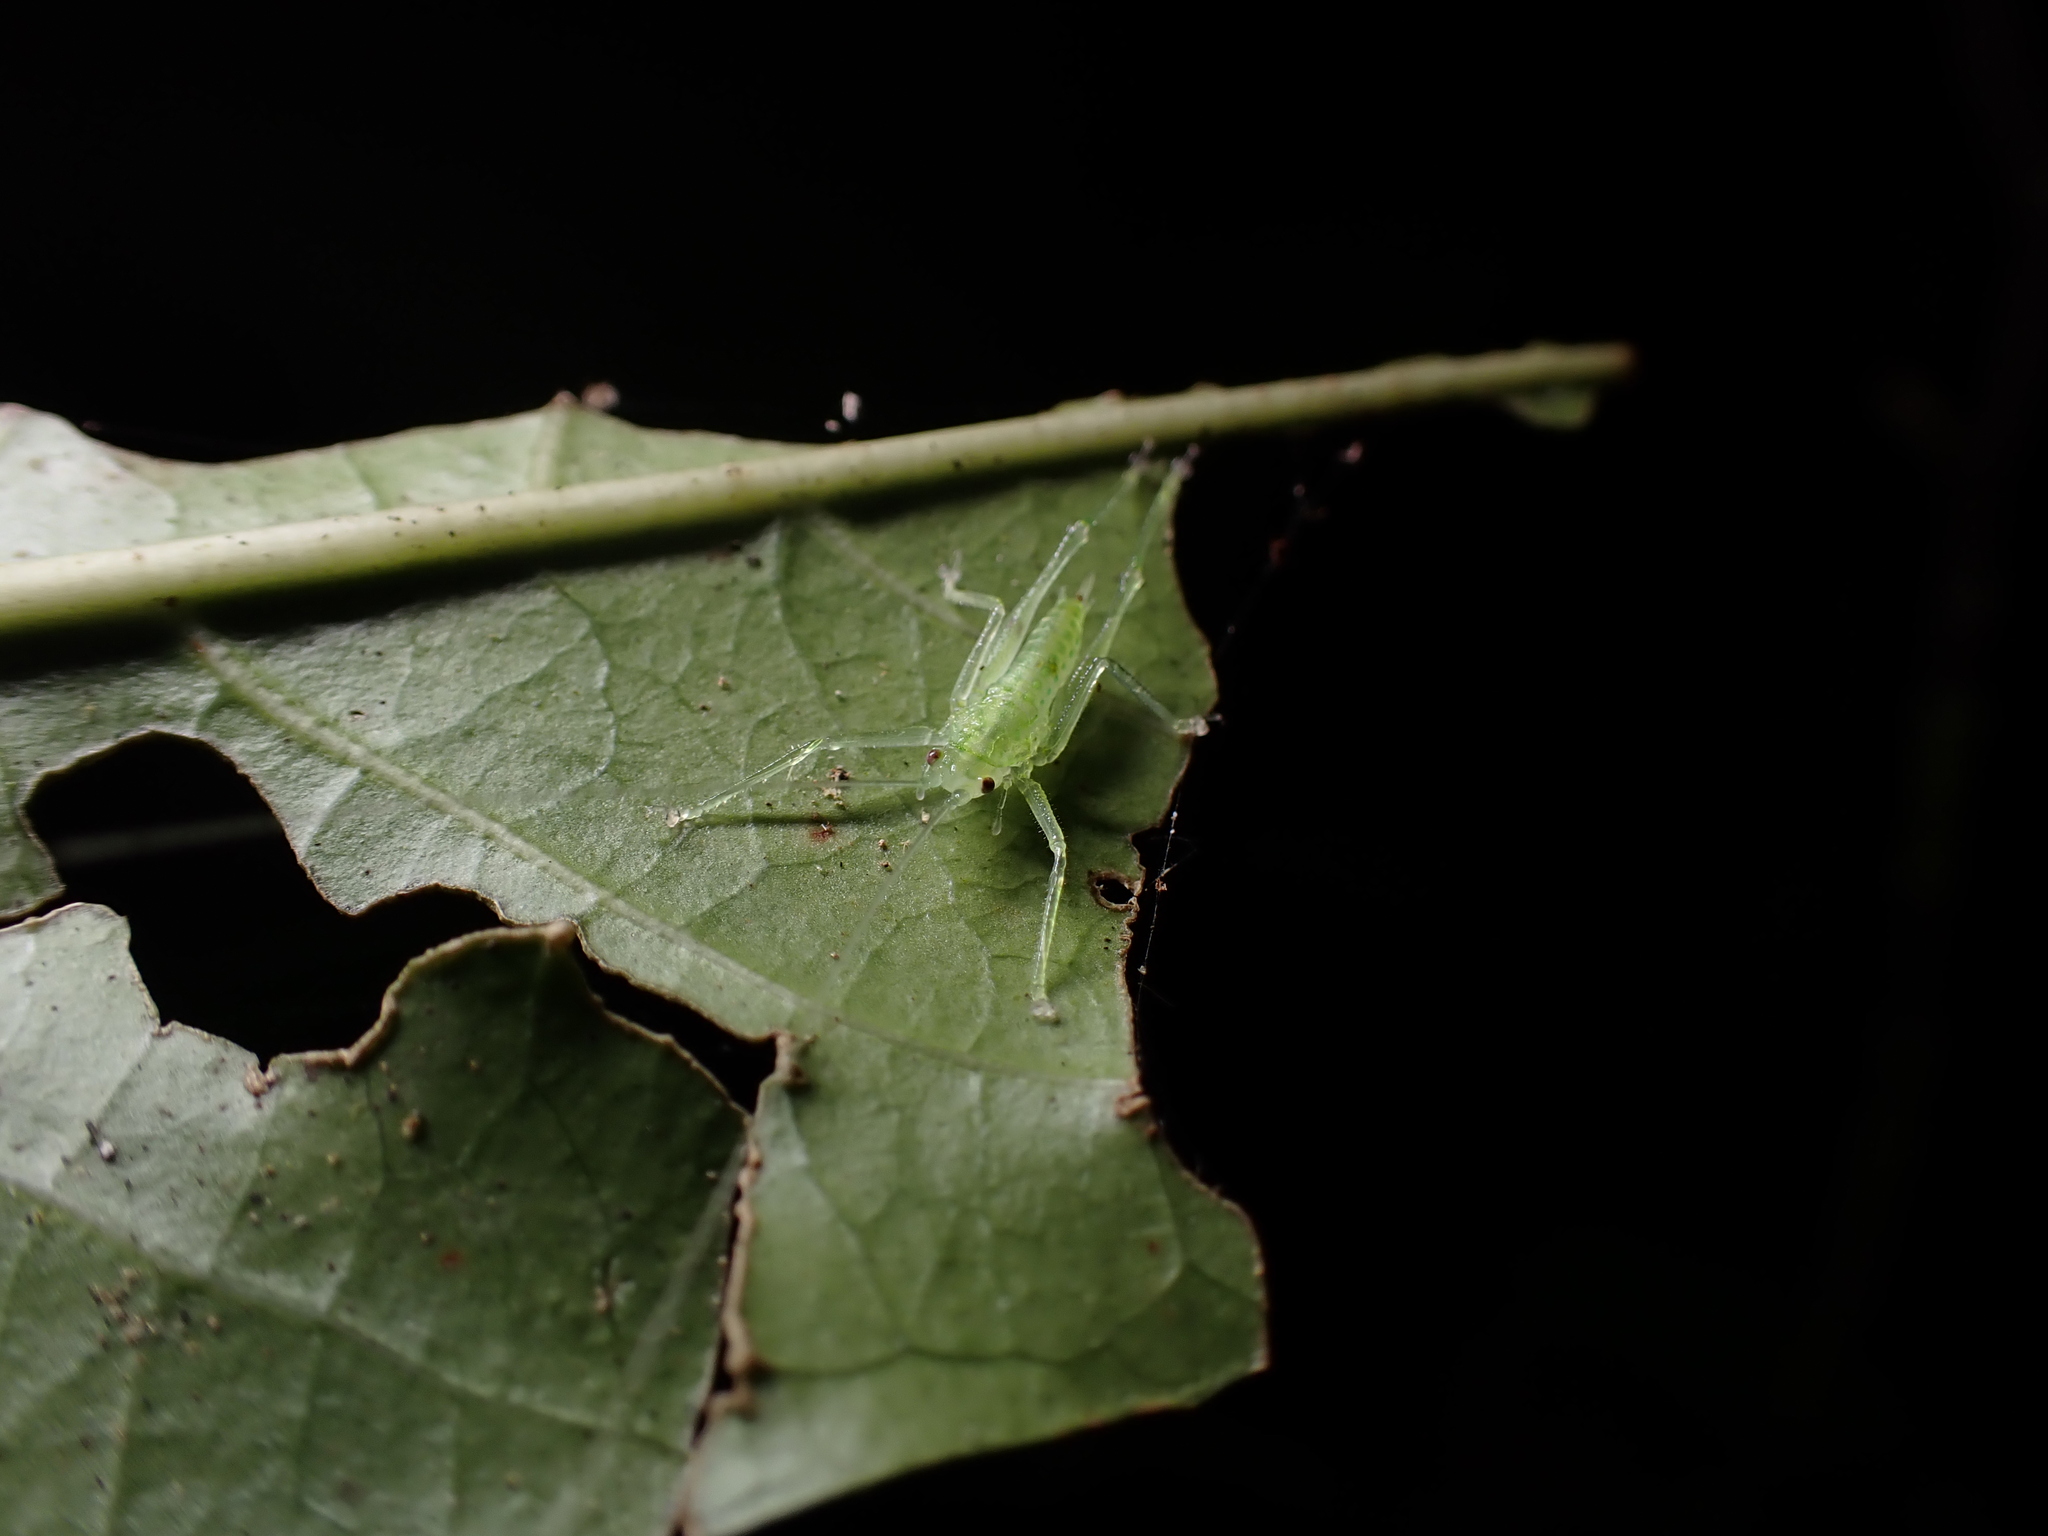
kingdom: Animalia
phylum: Arthropoda
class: Insecta
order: Orthoptera
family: Tettigoniidae
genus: Miniagraecia
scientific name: Miniagraecia milyali
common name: Tiny forest green katydid
